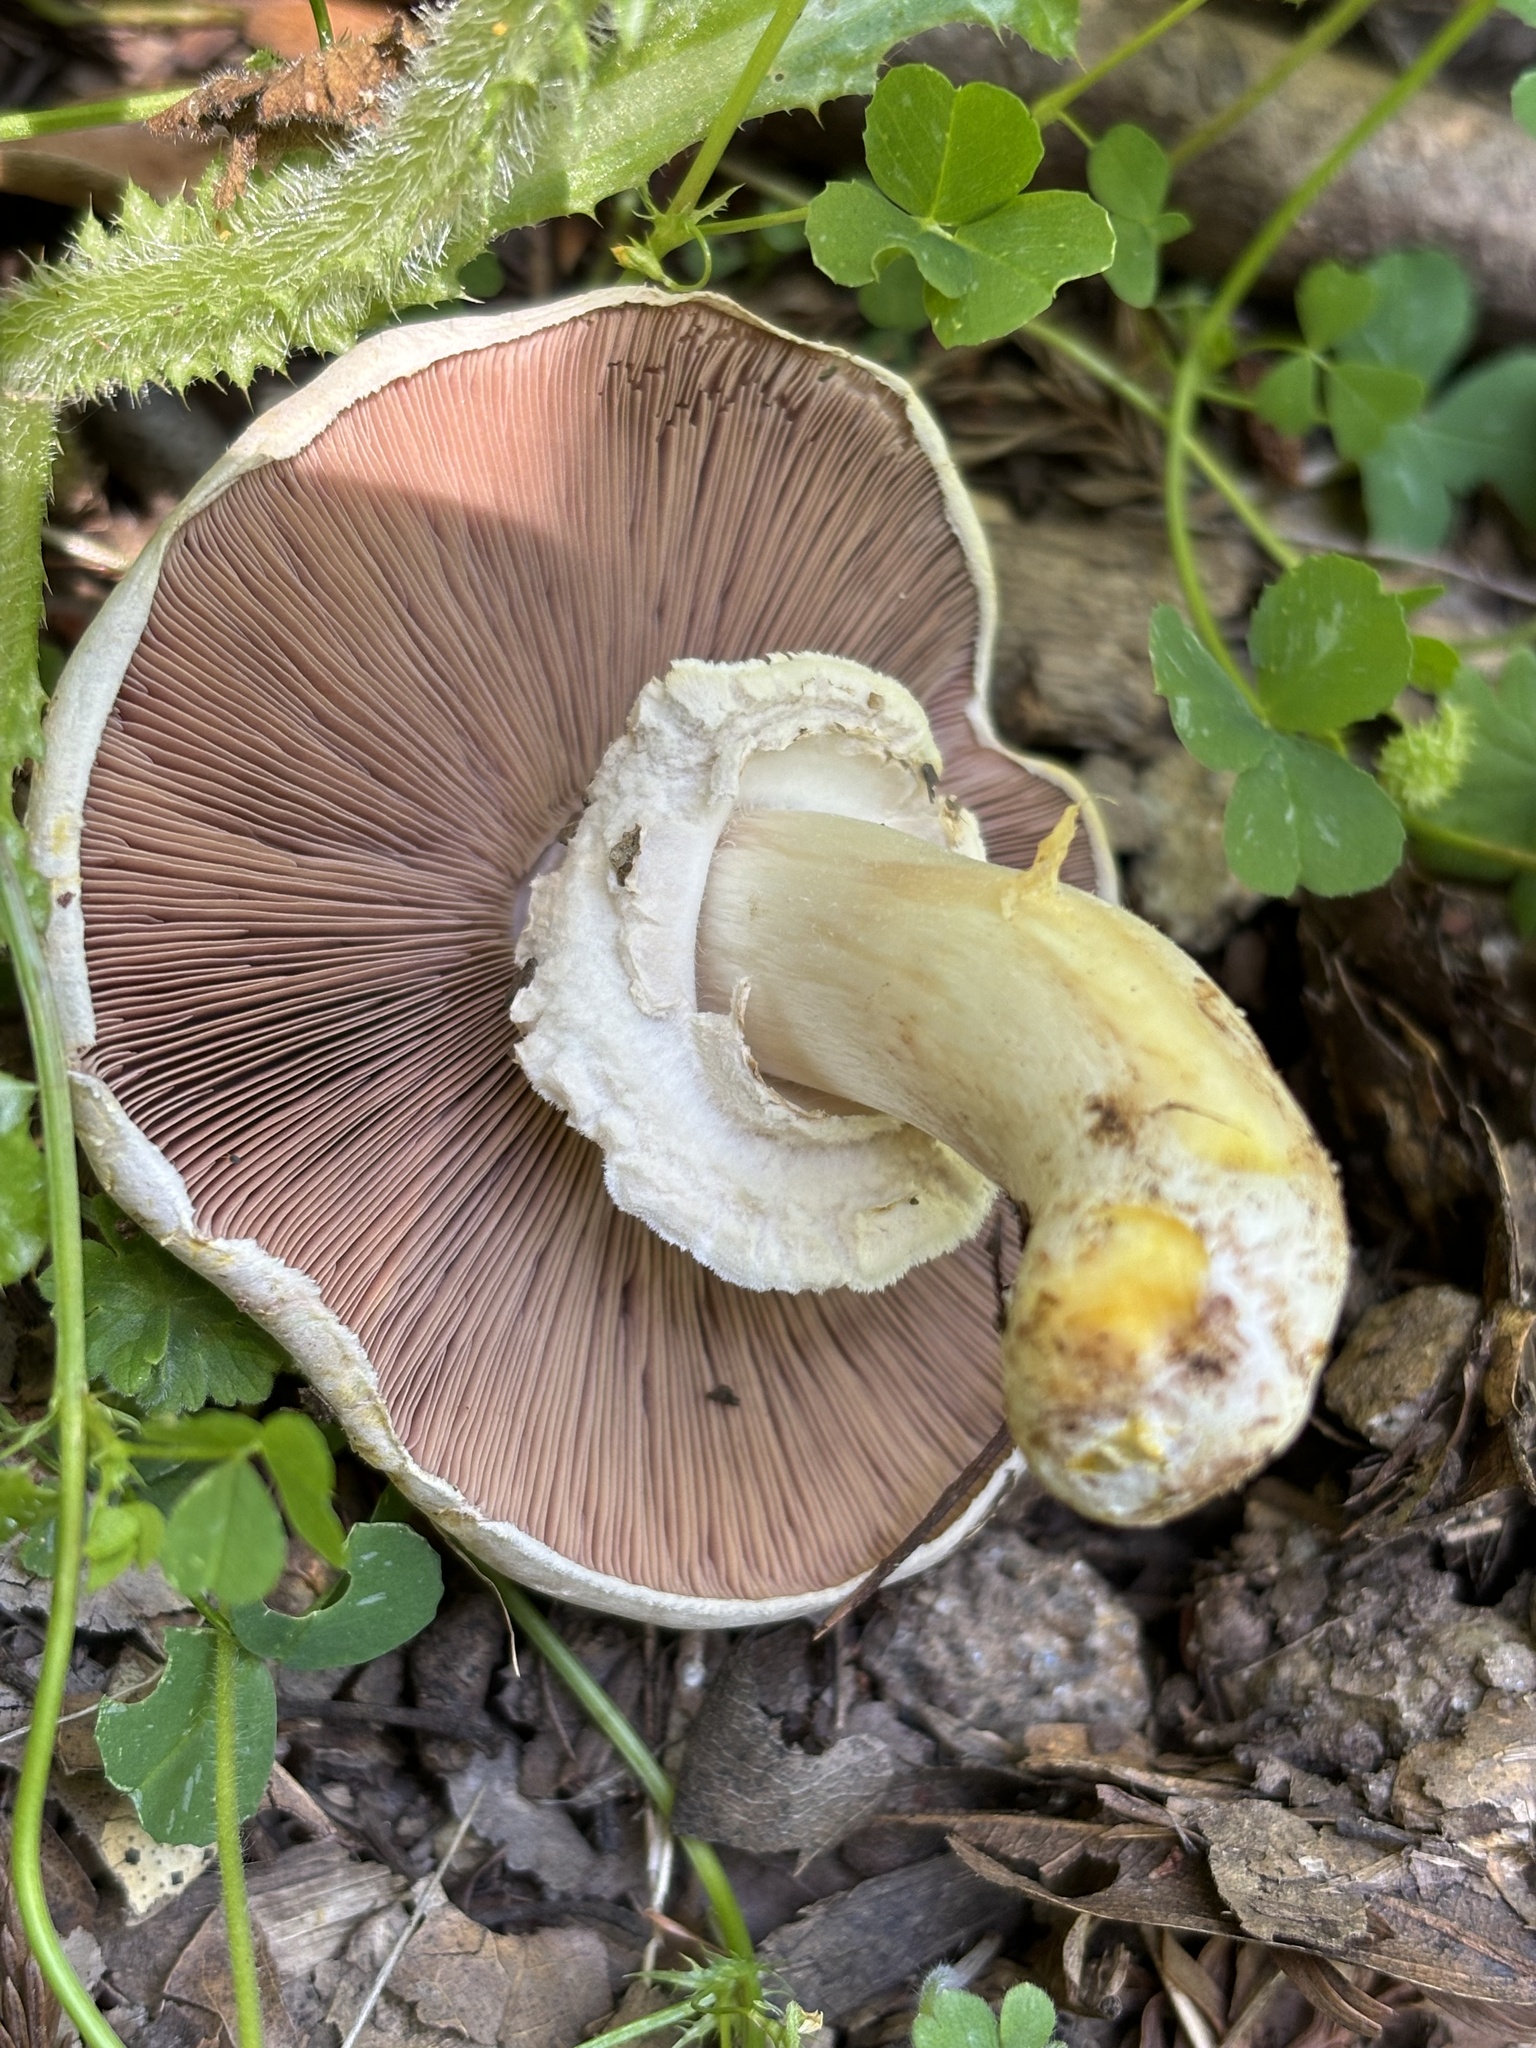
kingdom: Fungi
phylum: Basidiomycota
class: Agaricomycetes
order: Agaricales
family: Agaricaceae
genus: Agaricus
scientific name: Agaricus xanthodermus
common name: Yellow stainer
